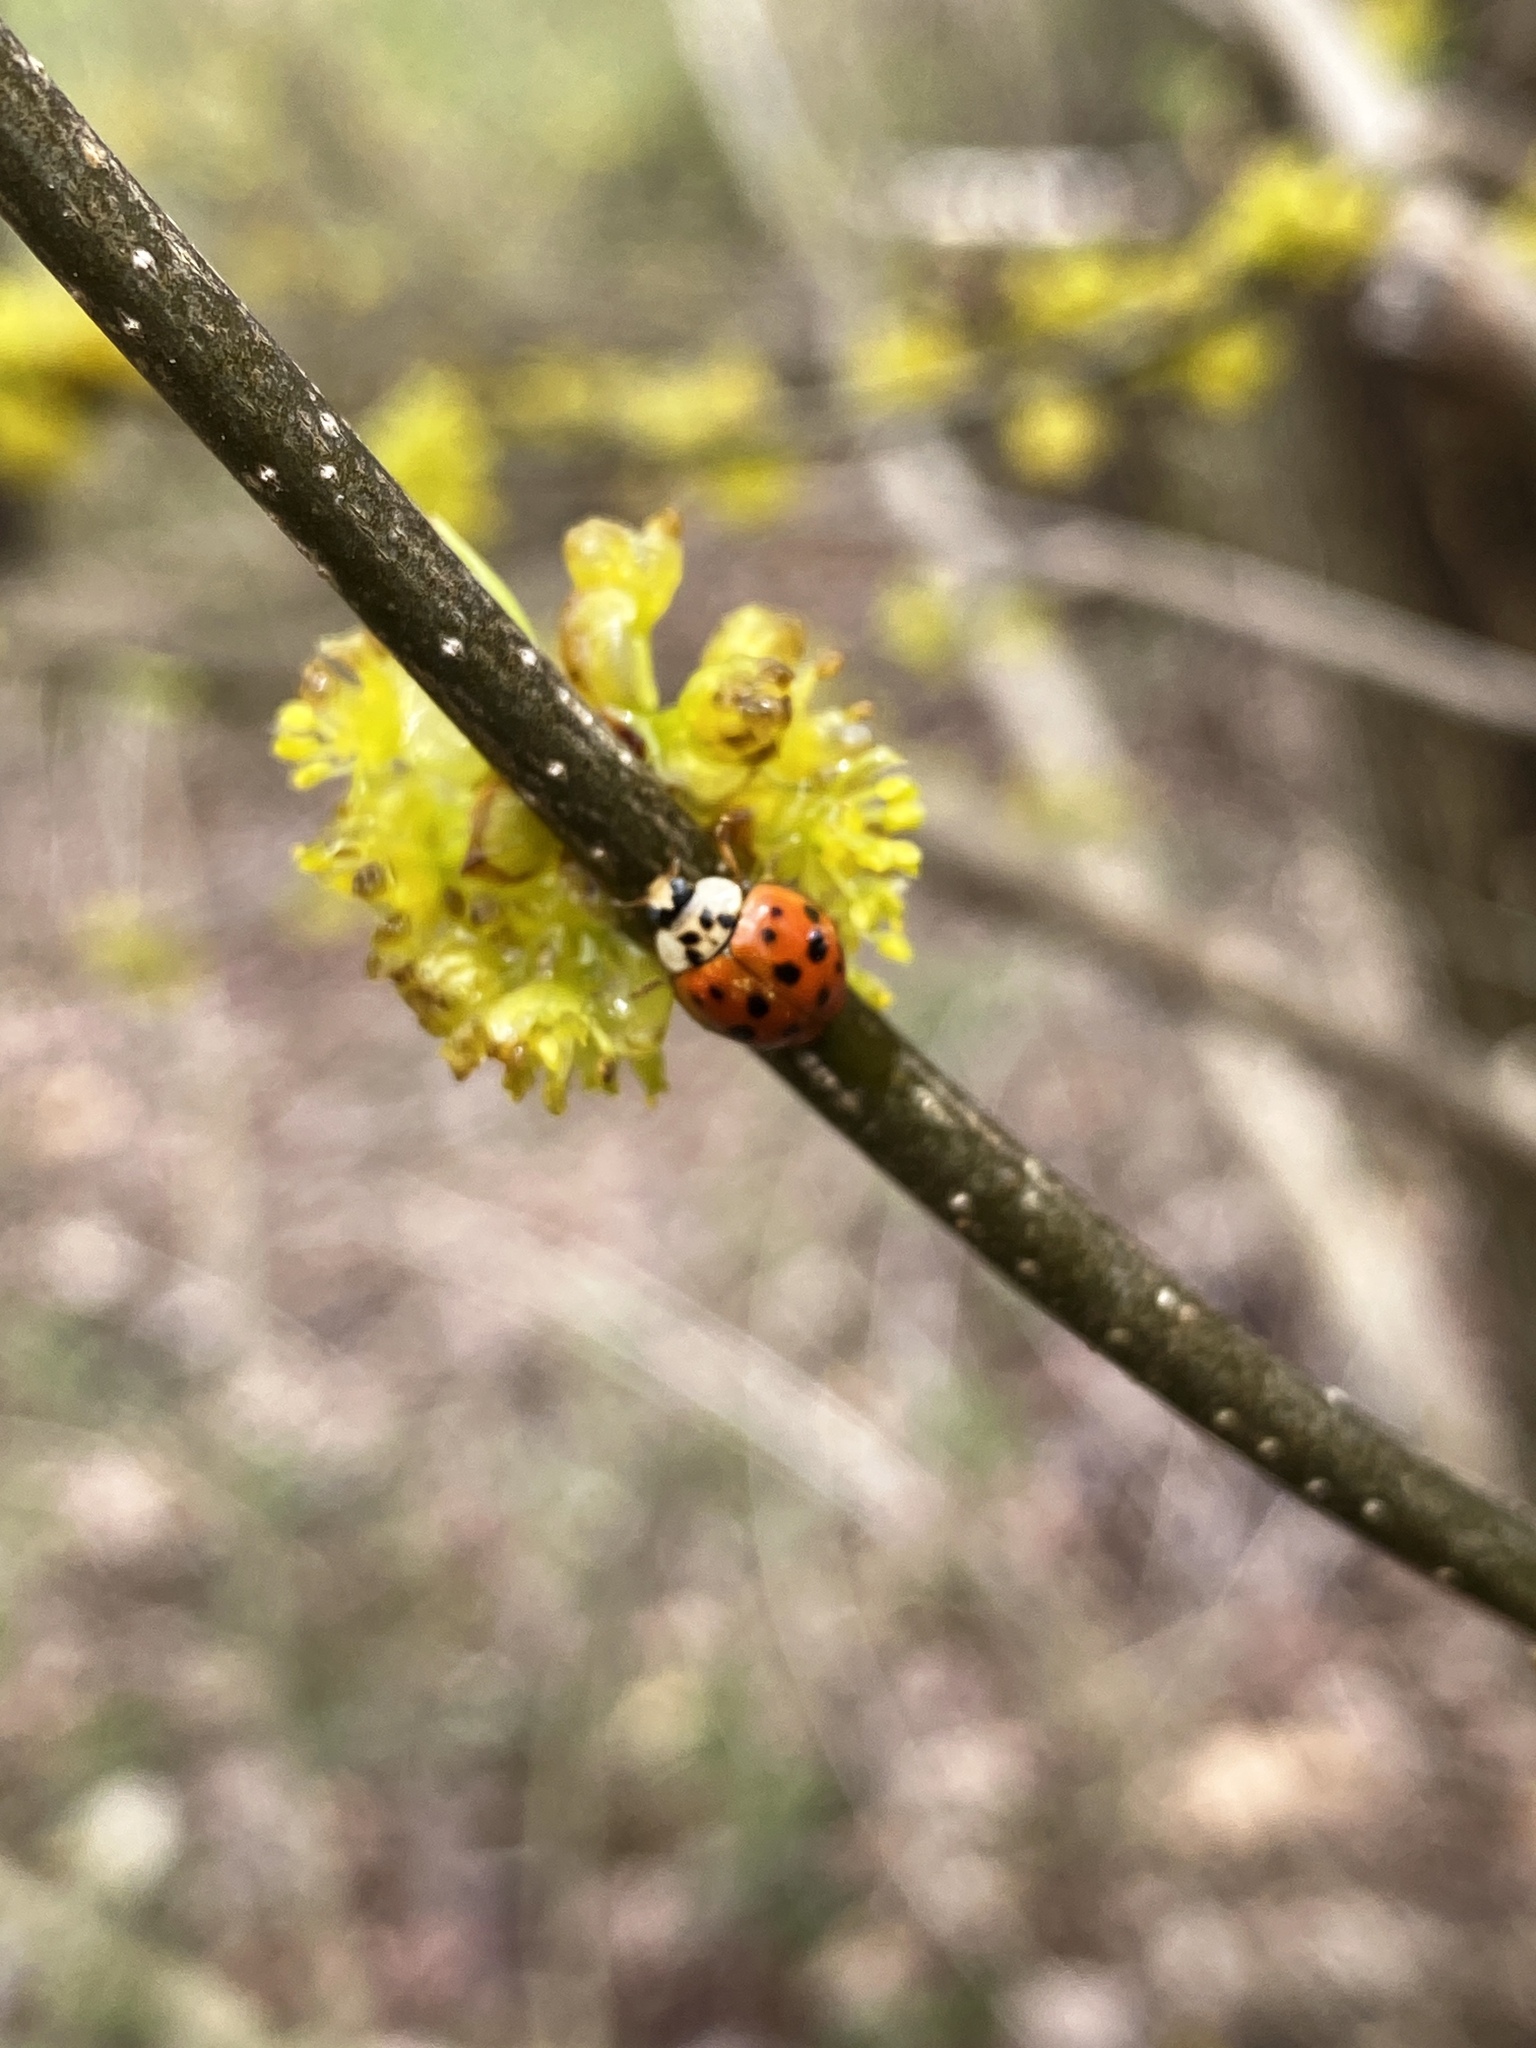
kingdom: Animalia
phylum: Arthropoda
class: Insecta
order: Coleoptera
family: Coccinellidae
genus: Harmonia
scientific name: Harmonia axyridis
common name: Harlequin ladybird
